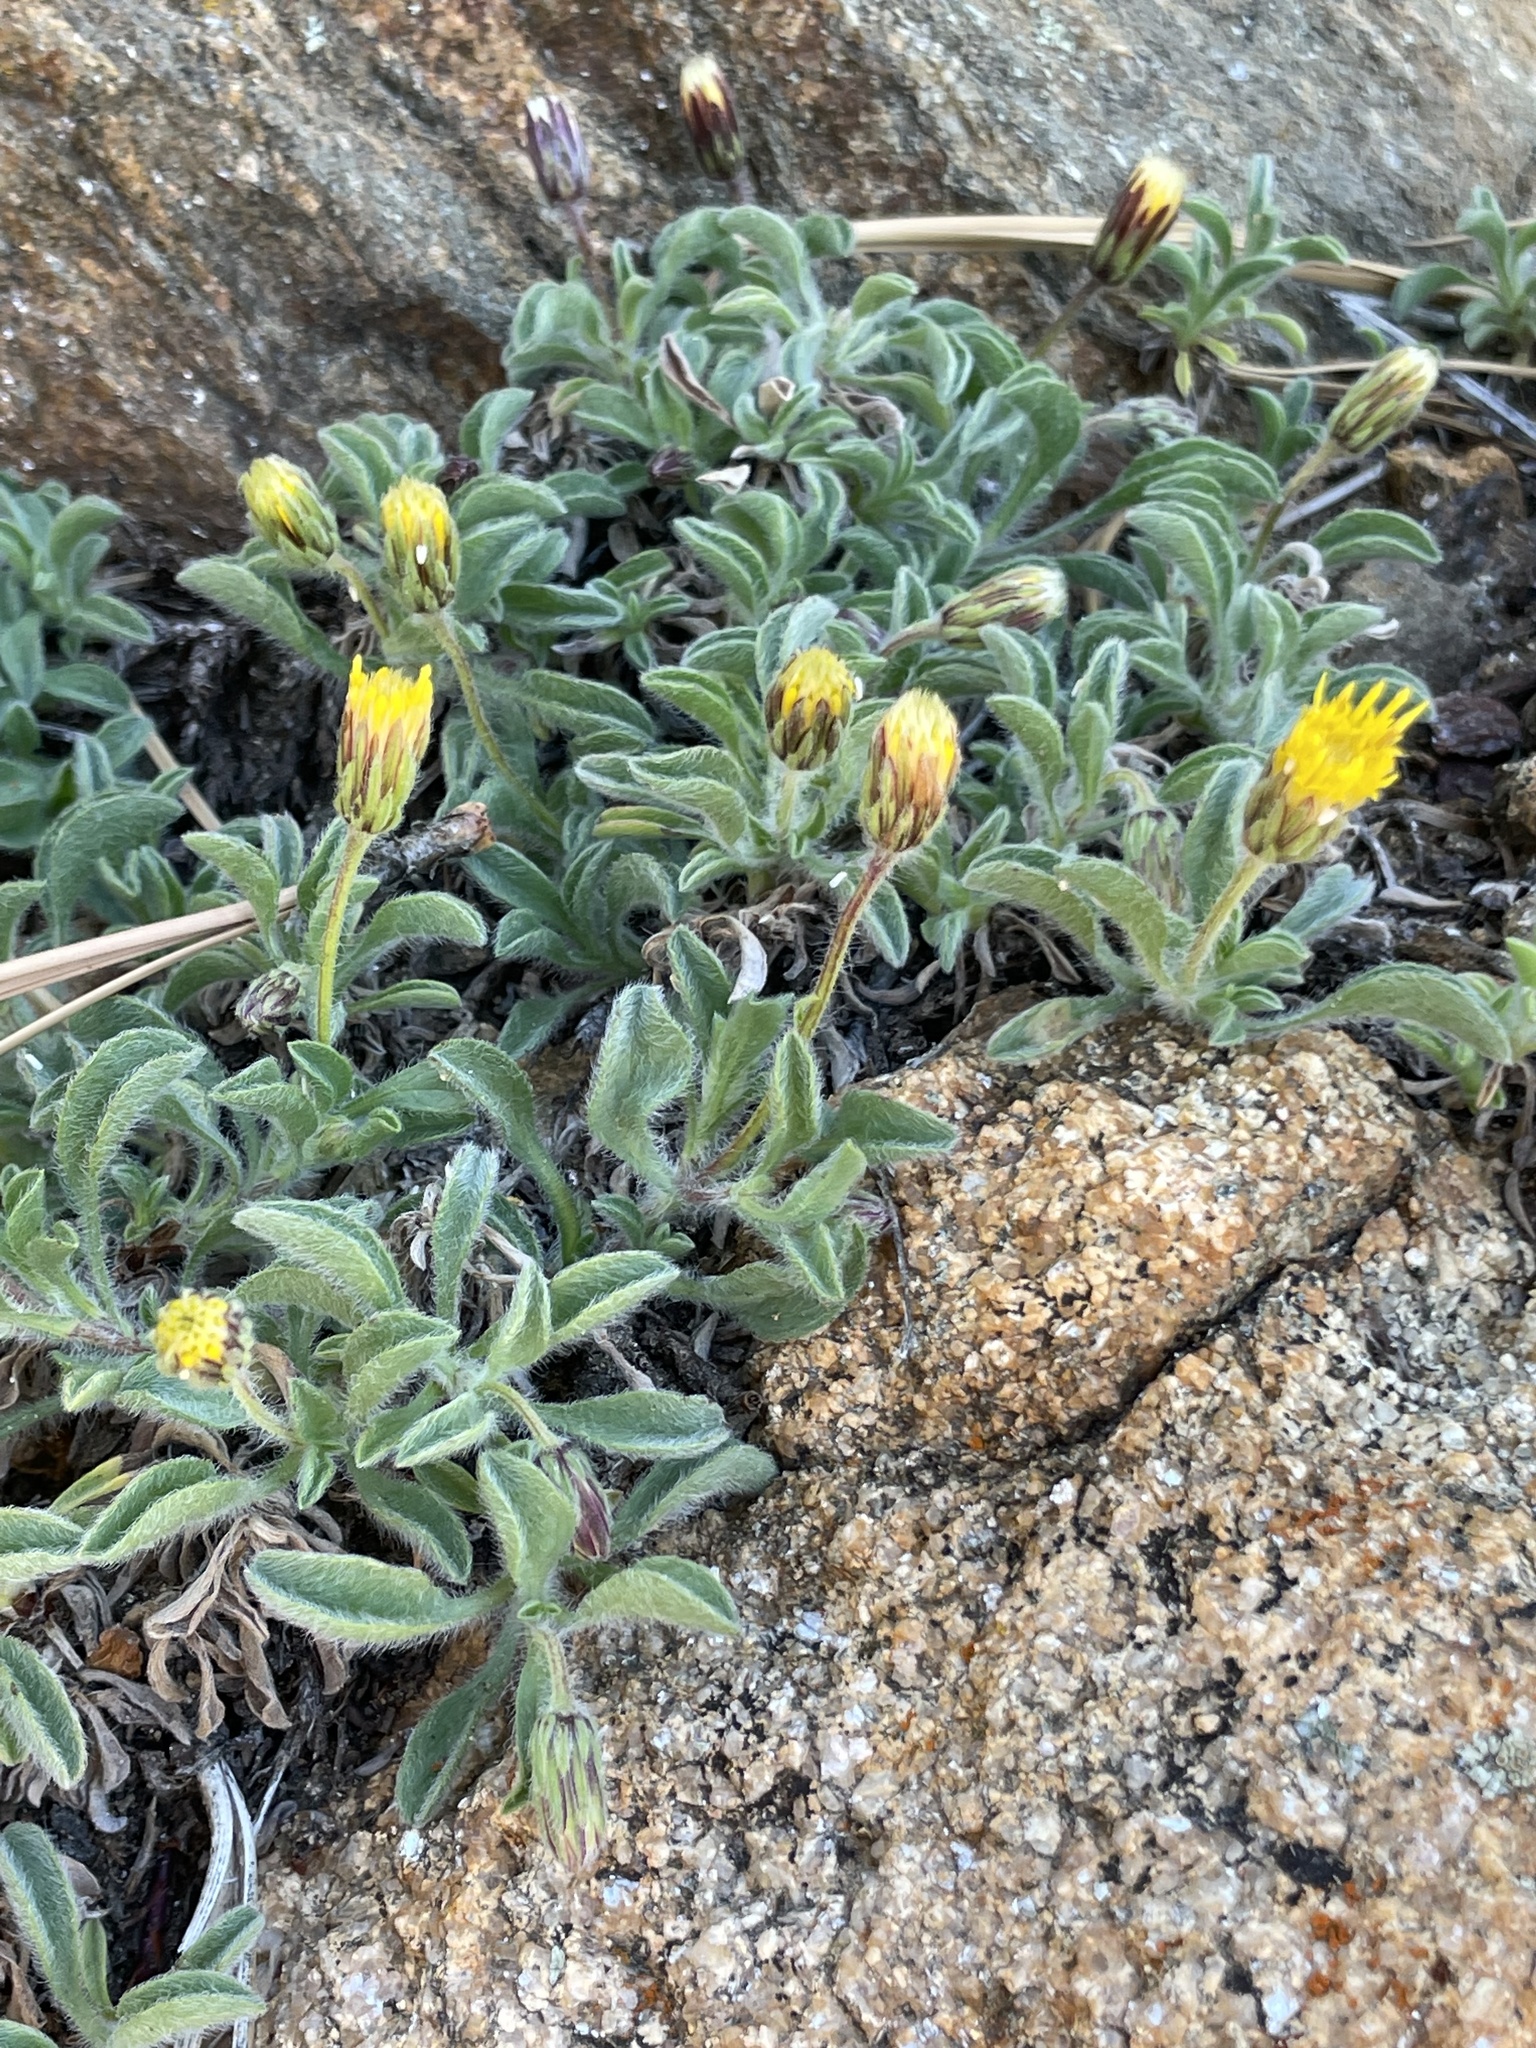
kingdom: Plantae
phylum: Tracheophyta
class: Magnoliopsida
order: Asterales
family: Asteraceae
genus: Heterotheca
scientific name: Heterotheca brandegeei
